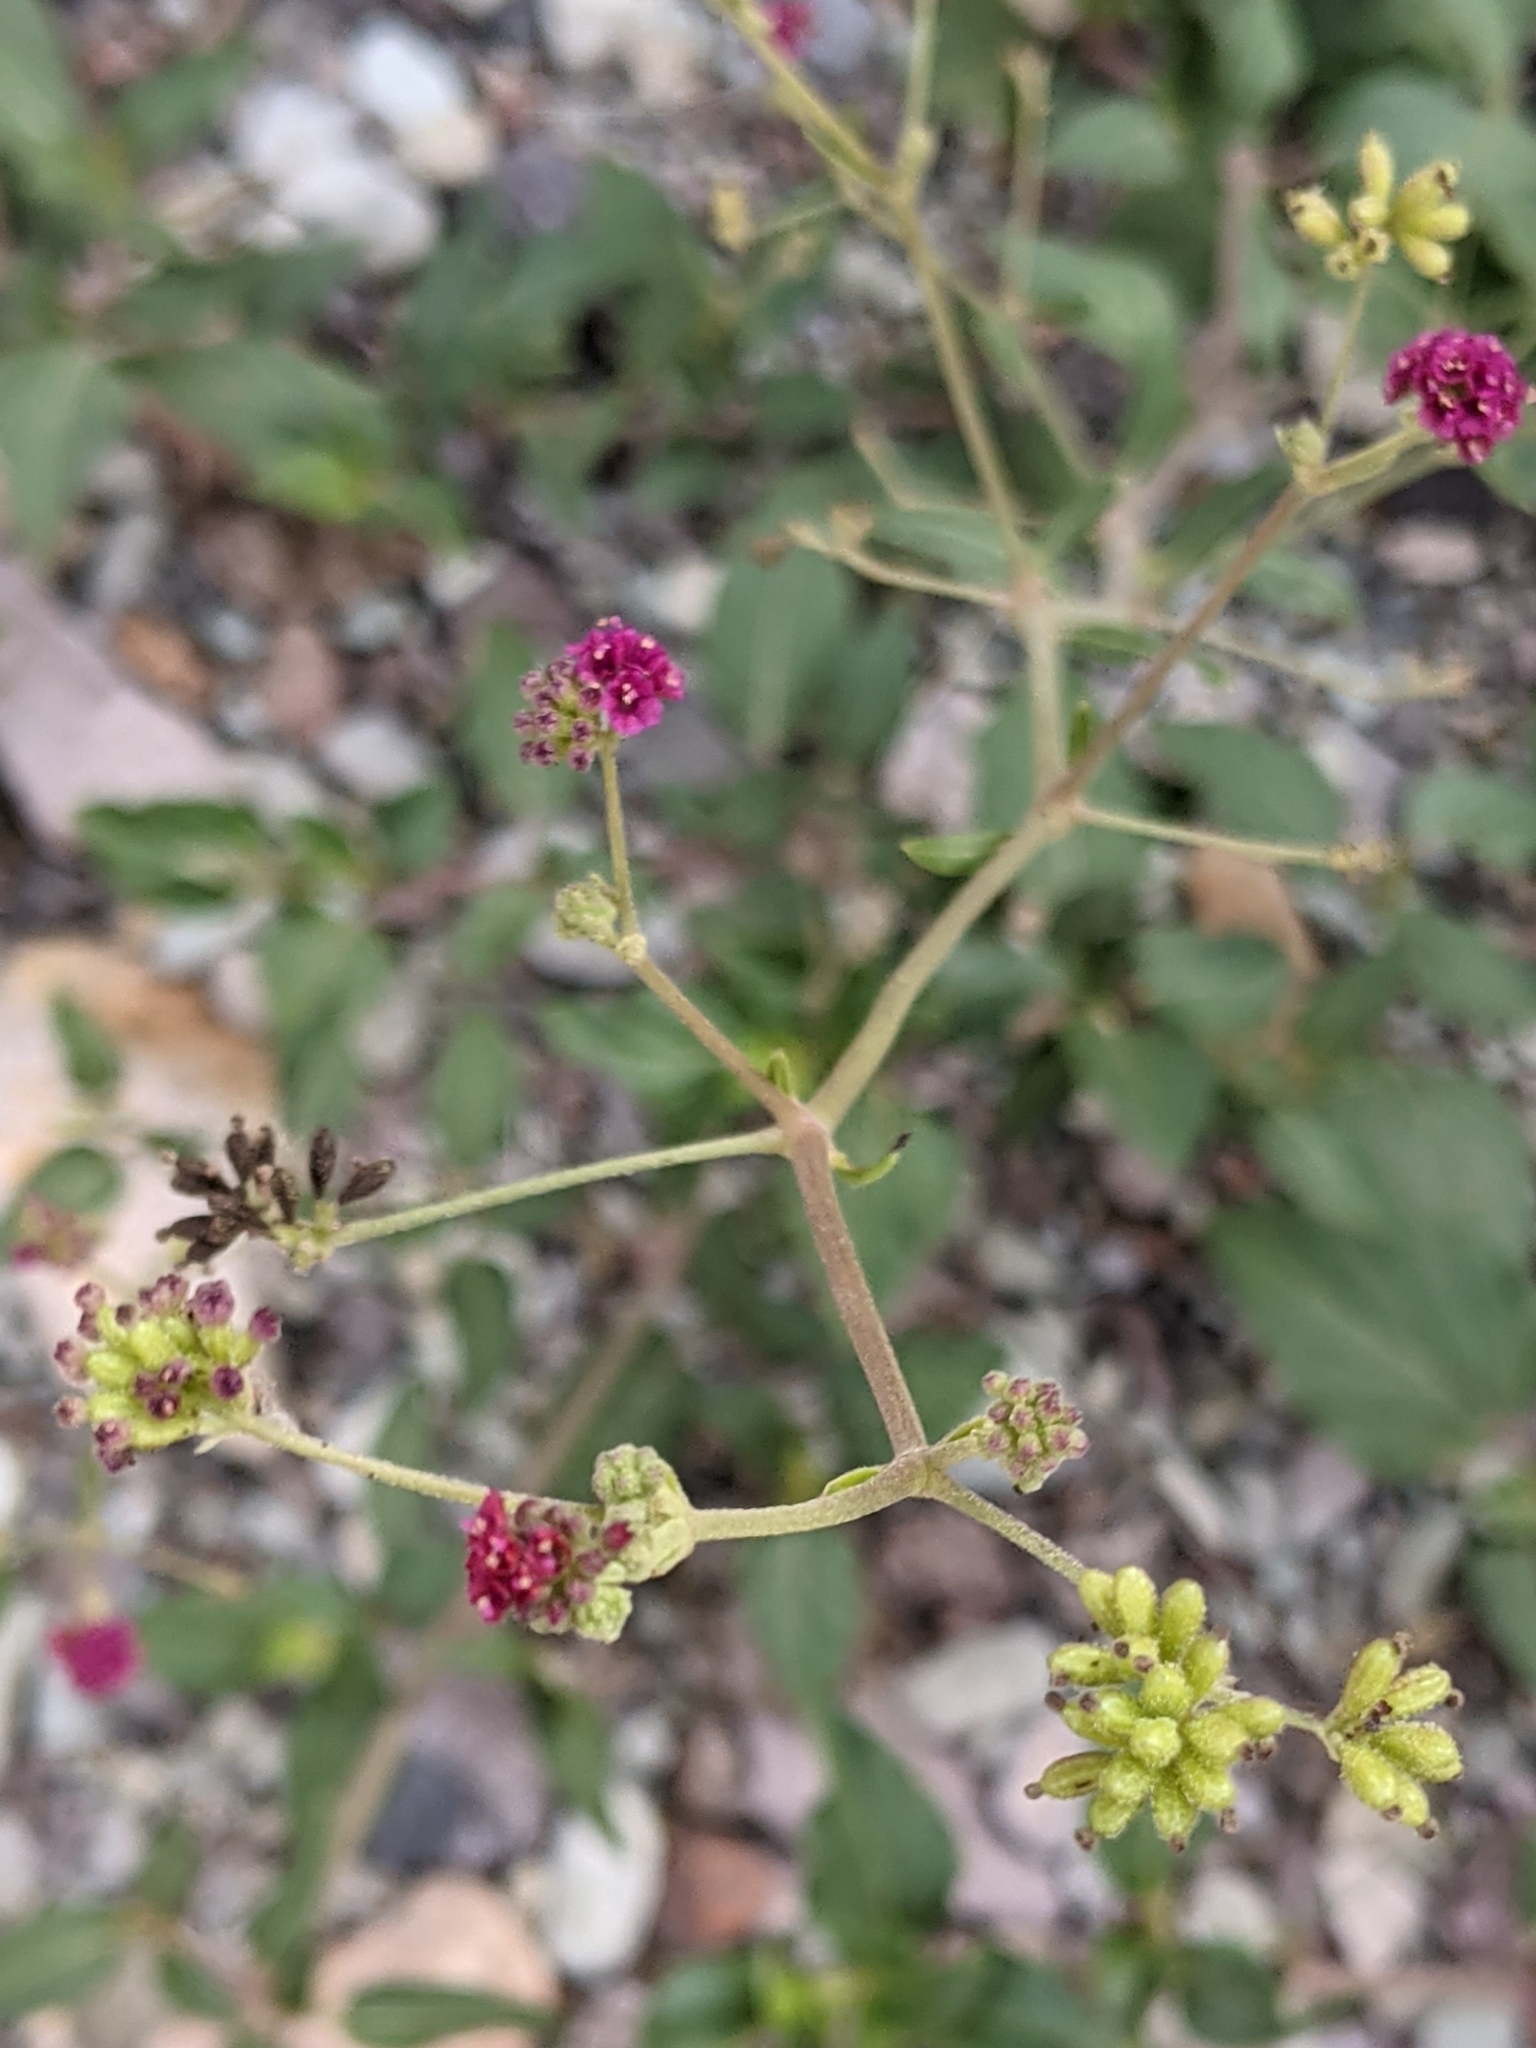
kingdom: Plantae
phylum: Tracheophyta
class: Magnoliopsida
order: Caryophyllales
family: Nyctaginaceae
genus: Boerhavia
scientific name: Boerhavia coccinea
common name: Scarlet spiderling
